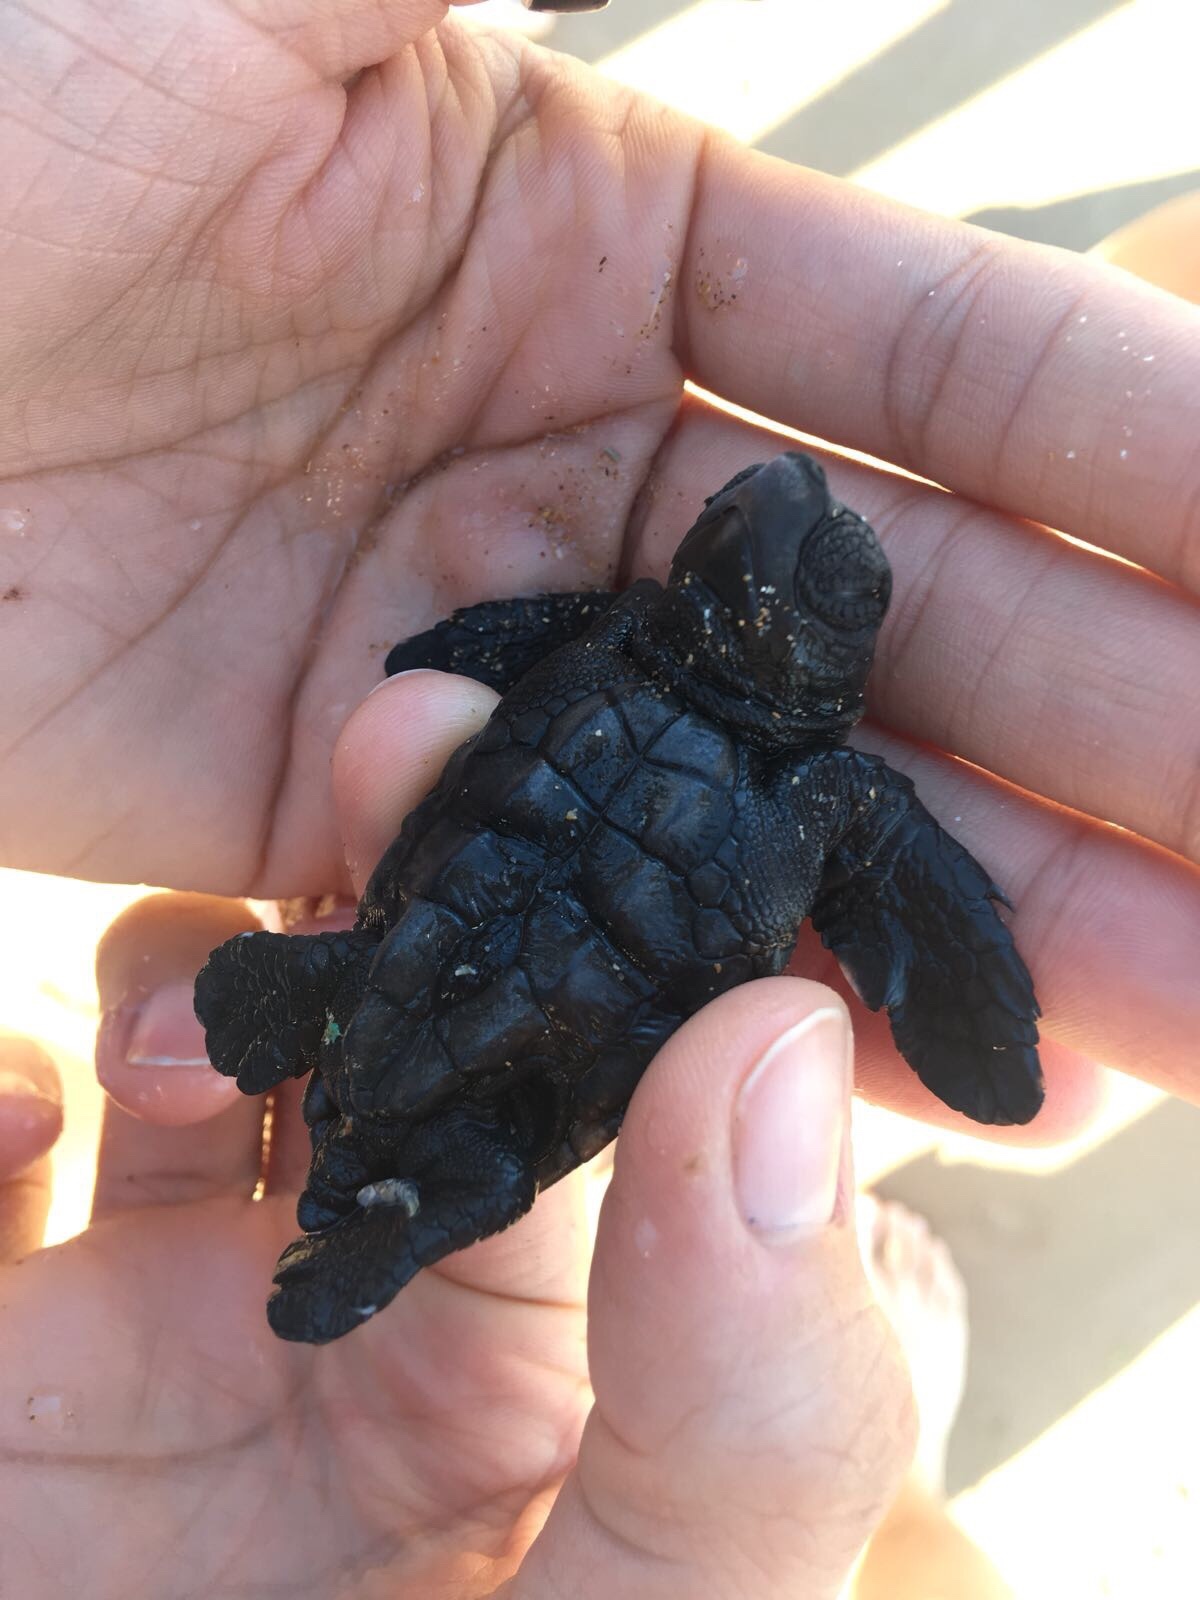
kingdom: Animalia
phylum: Chordata
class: Testudines
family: Cheloniidae
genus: Caretta
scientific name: Caretta caretta
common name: Loggerhead sea turtle
